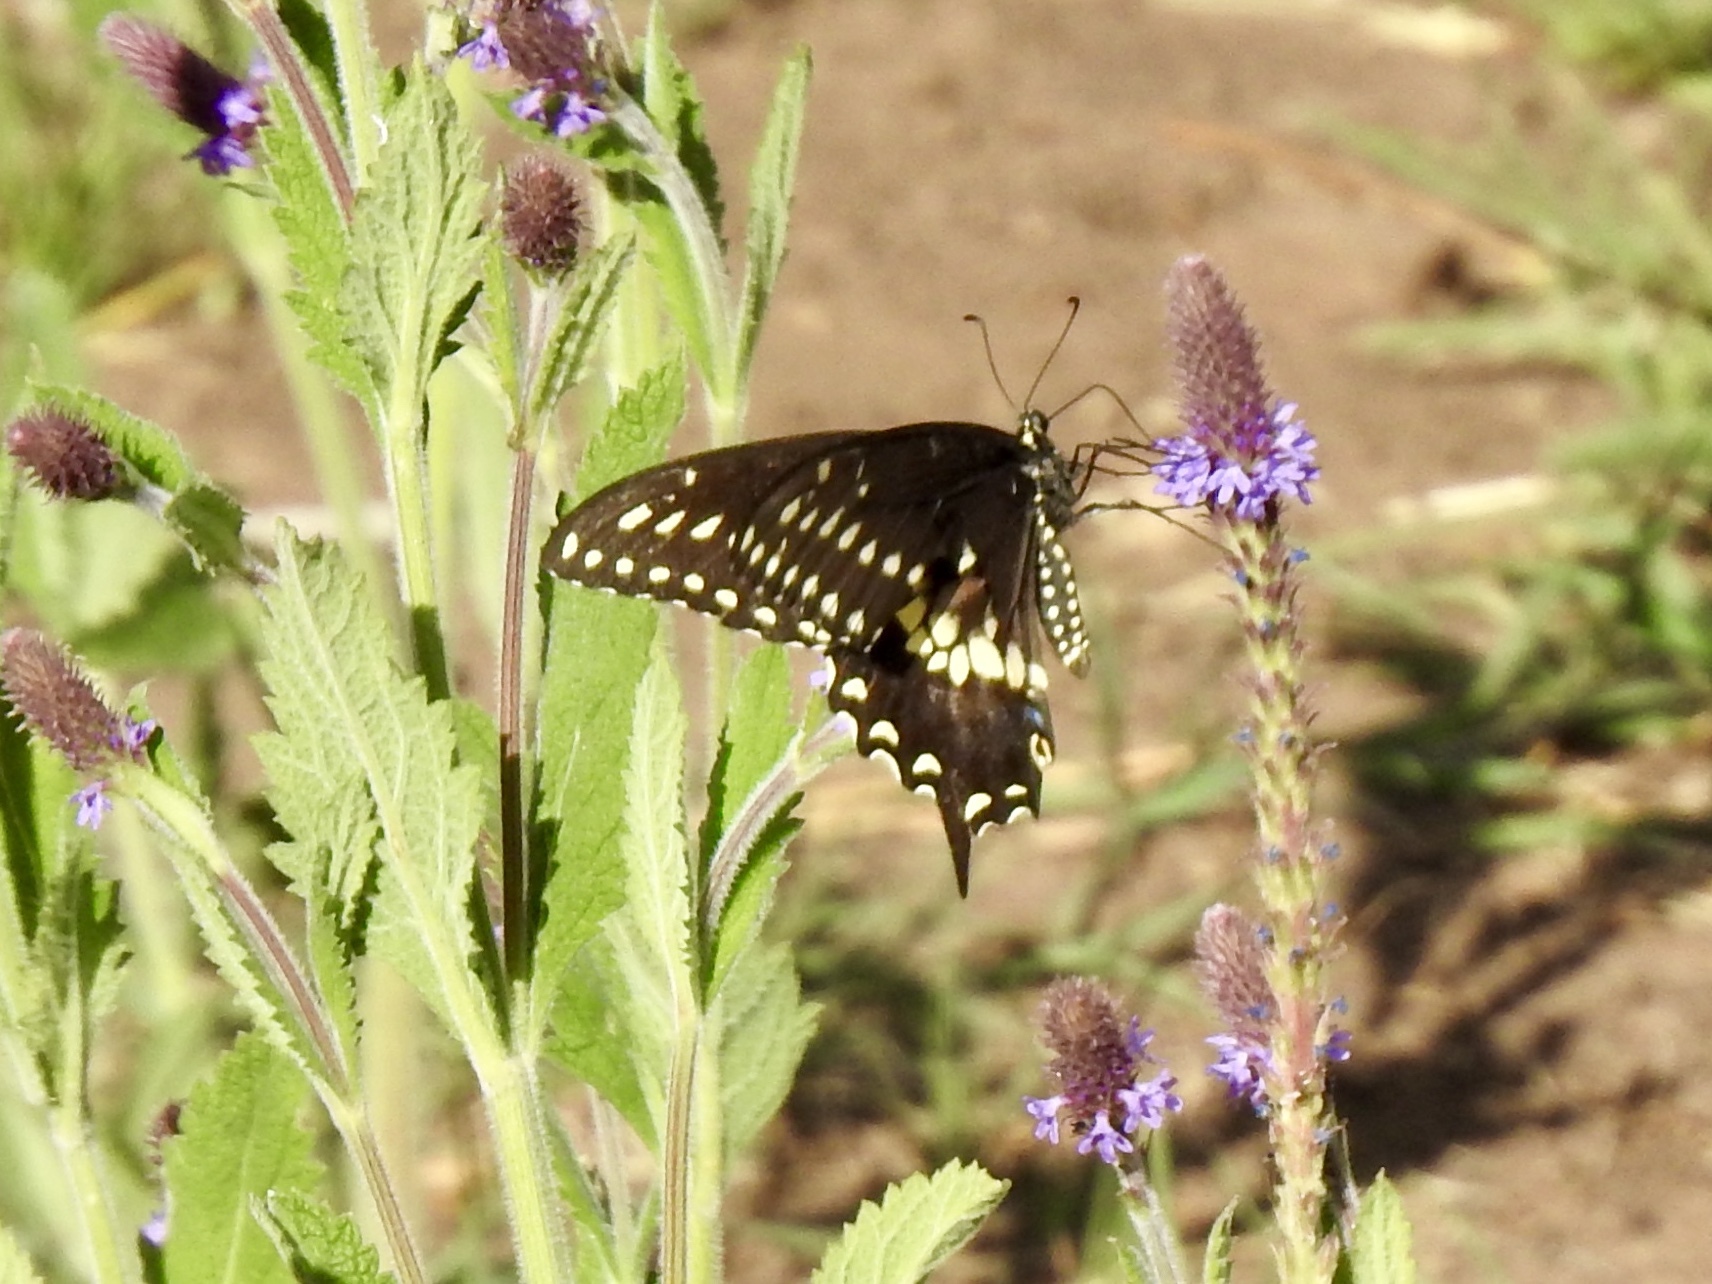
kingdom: Animalia
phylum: Arthropoda
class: Insecta
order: Lepidoptera
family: Papilionidae
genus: Papilio
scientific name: Papilio polyxenes
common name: Black swallowtail
